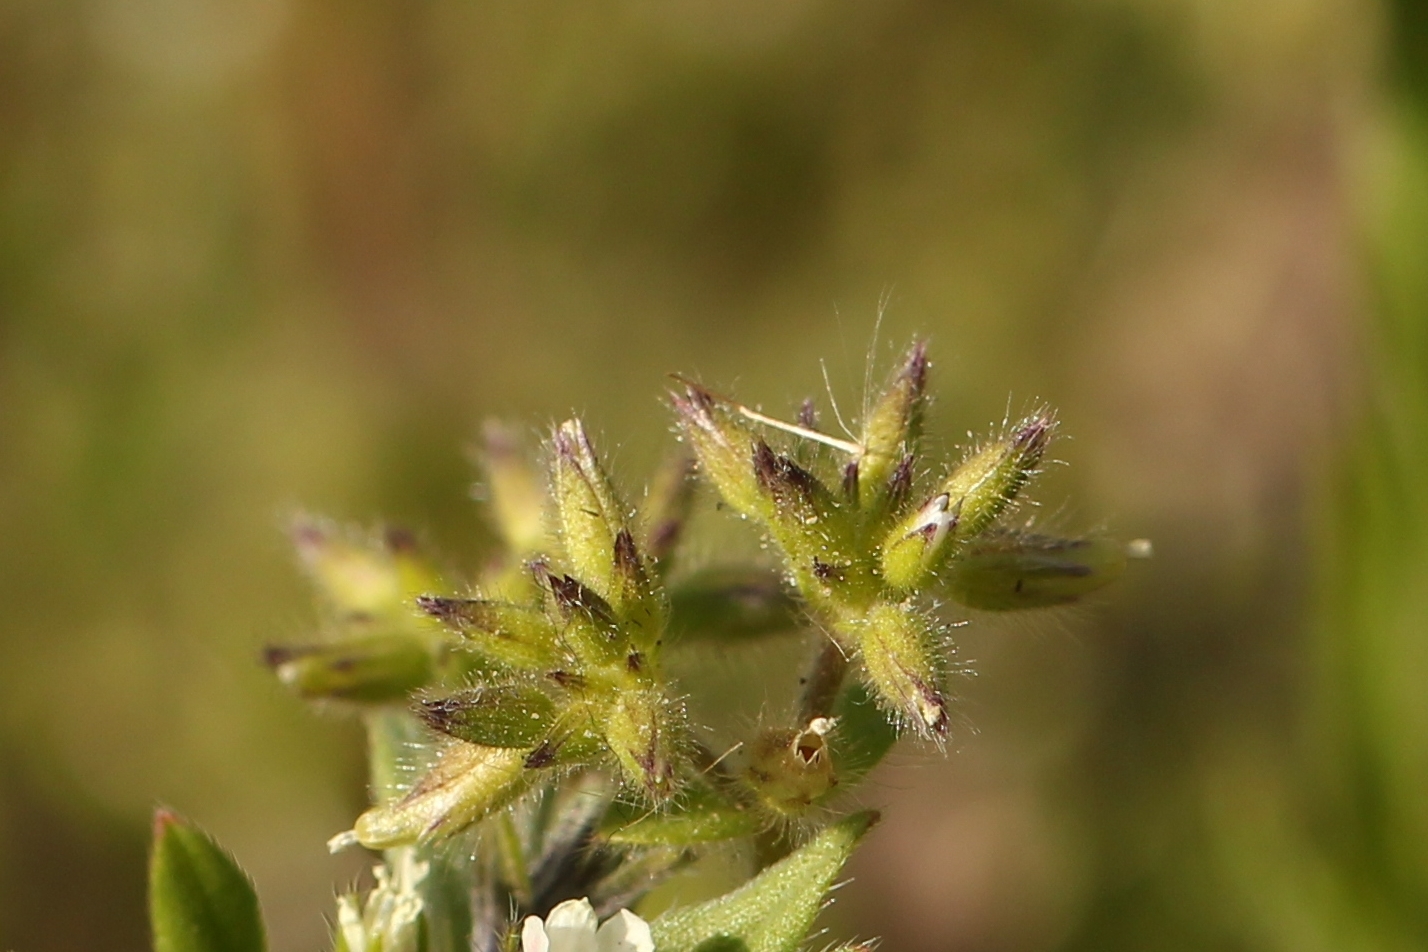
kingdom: Plantae
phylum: Tracheophyta
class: Magnoliopsida
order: Caryophyllales
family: Caryophyllaceae
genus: Cerastium
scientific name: Cerastium glomeratum
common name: Sticky chickweed
